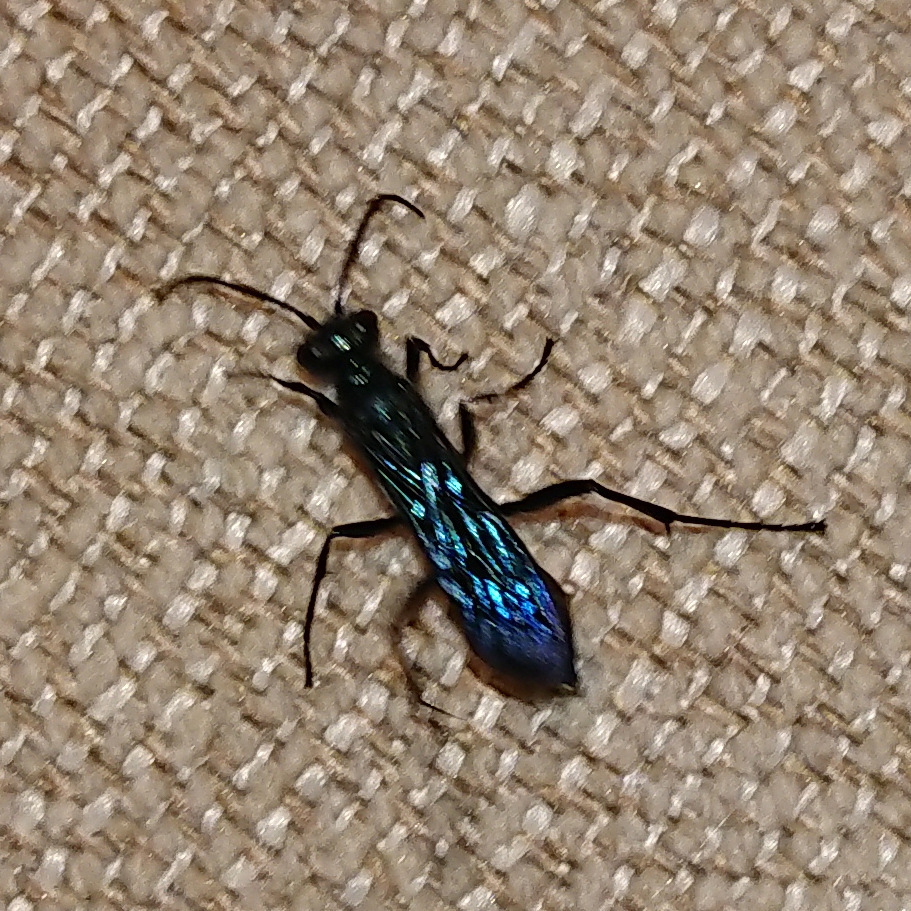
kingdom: Animalia
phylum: Arthropoda
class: Insecta
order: Hymenoptera
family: Sphecidae
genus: Chalybion
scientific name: Chalybion californicum
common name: Mud dauber
